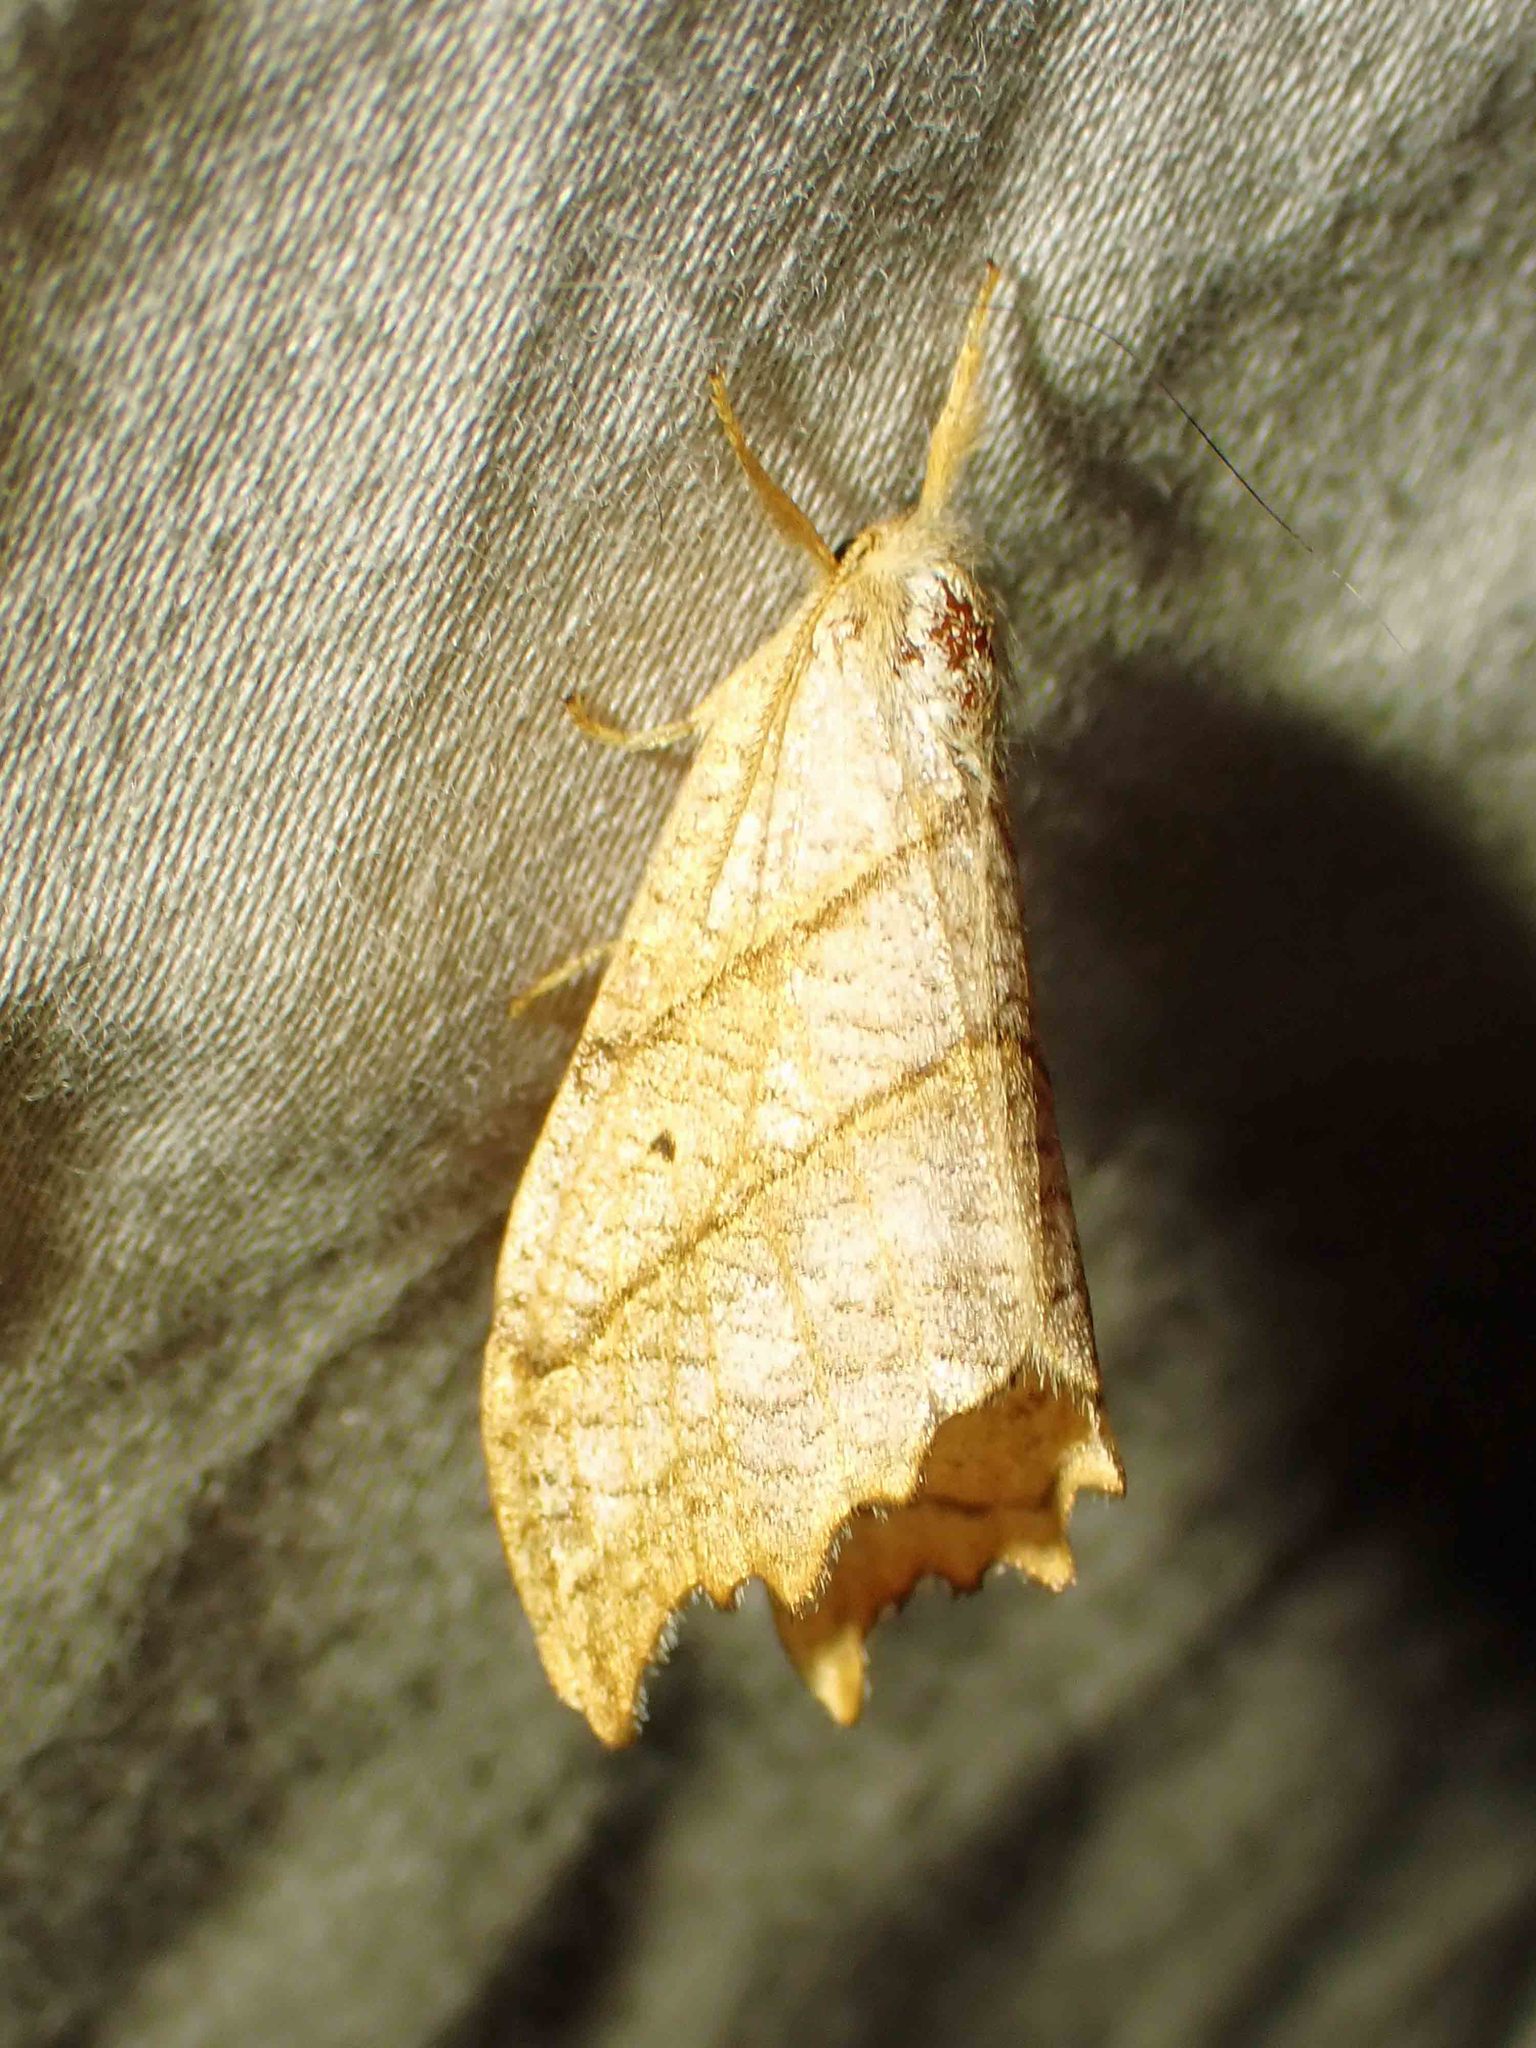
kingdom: Animalia
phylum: Arthropoda
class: Insecta
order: Lepidoptera
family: Drepanidae
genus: Falcaria
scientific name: Falcaria bilineata
